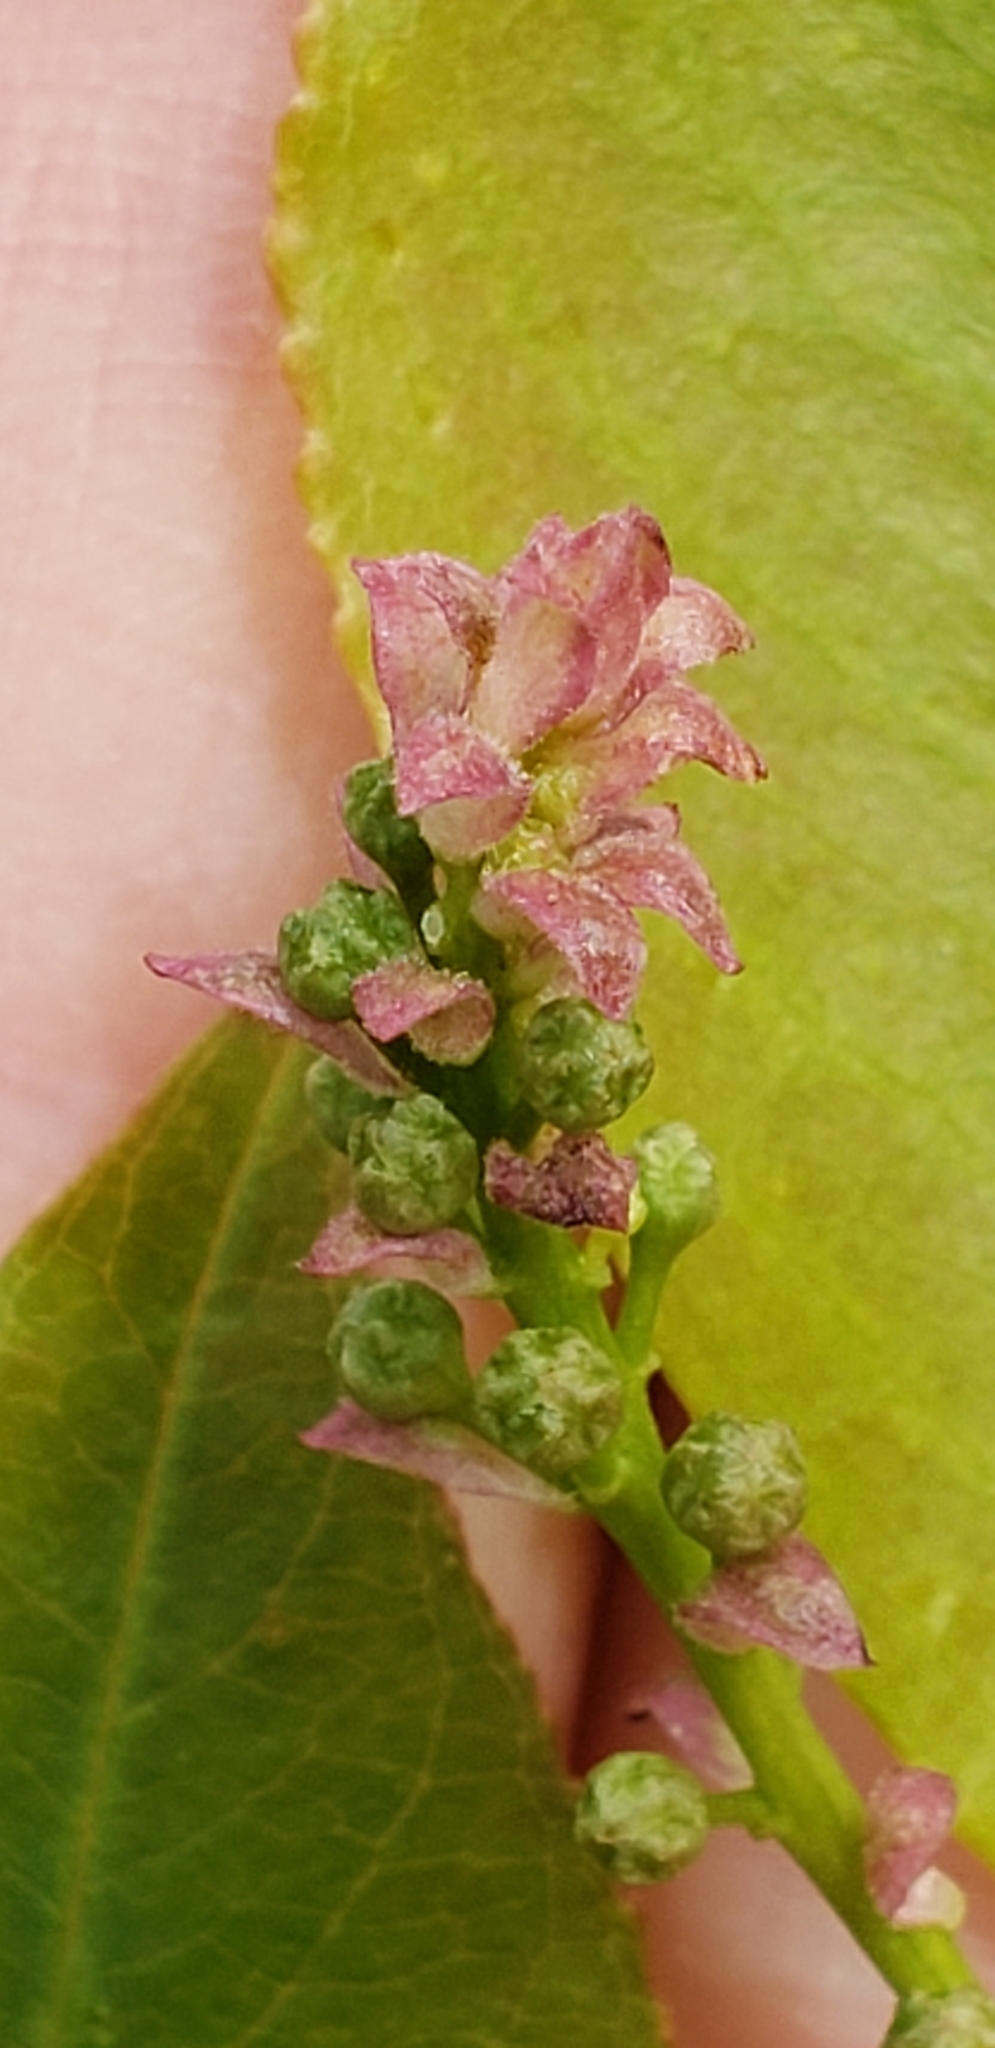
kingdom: Plantae
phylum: Tracheophyta
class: Magnoliopsida
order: Rosales
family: Rosaceae
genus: Prunus
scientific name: Prunus serotina
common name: Black cherry
